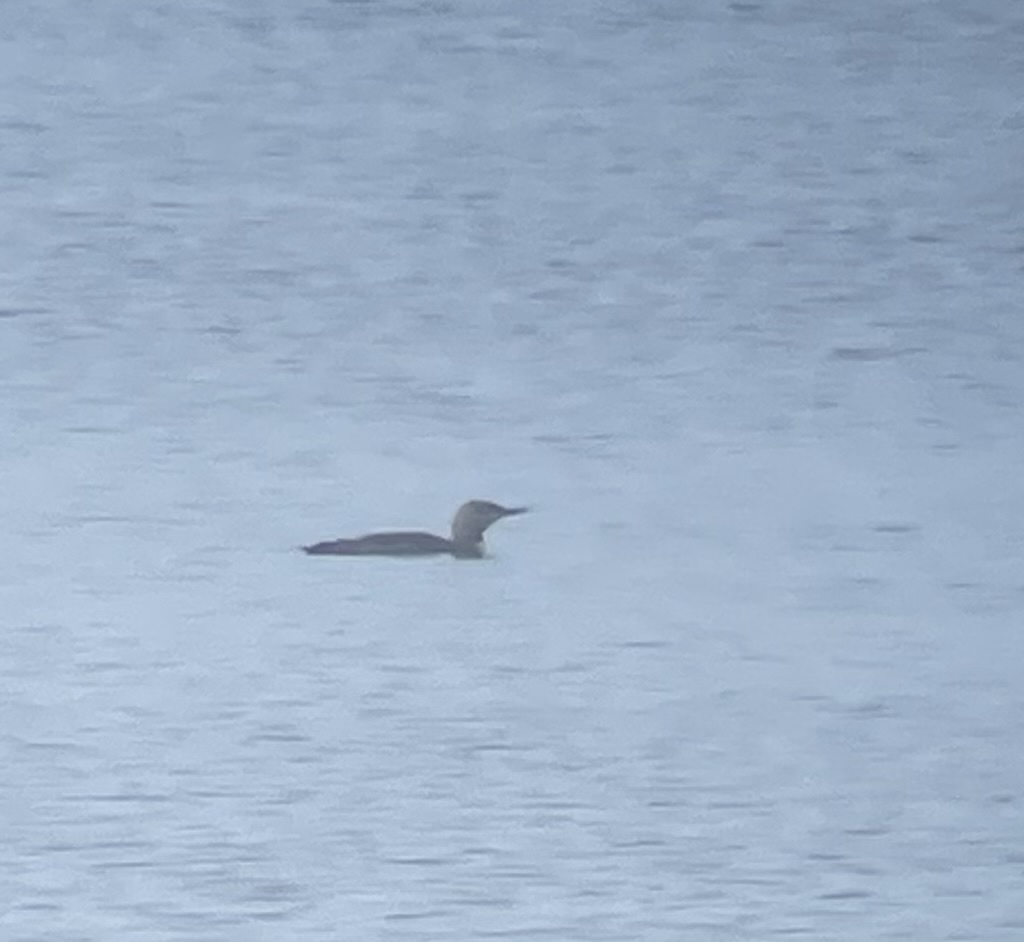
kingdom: Animalia
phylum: Chordata
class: Aves
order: Gaviiformes
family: Gaviidae
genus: Gavia
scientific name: Gavia stellata
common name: Red-throated loon
